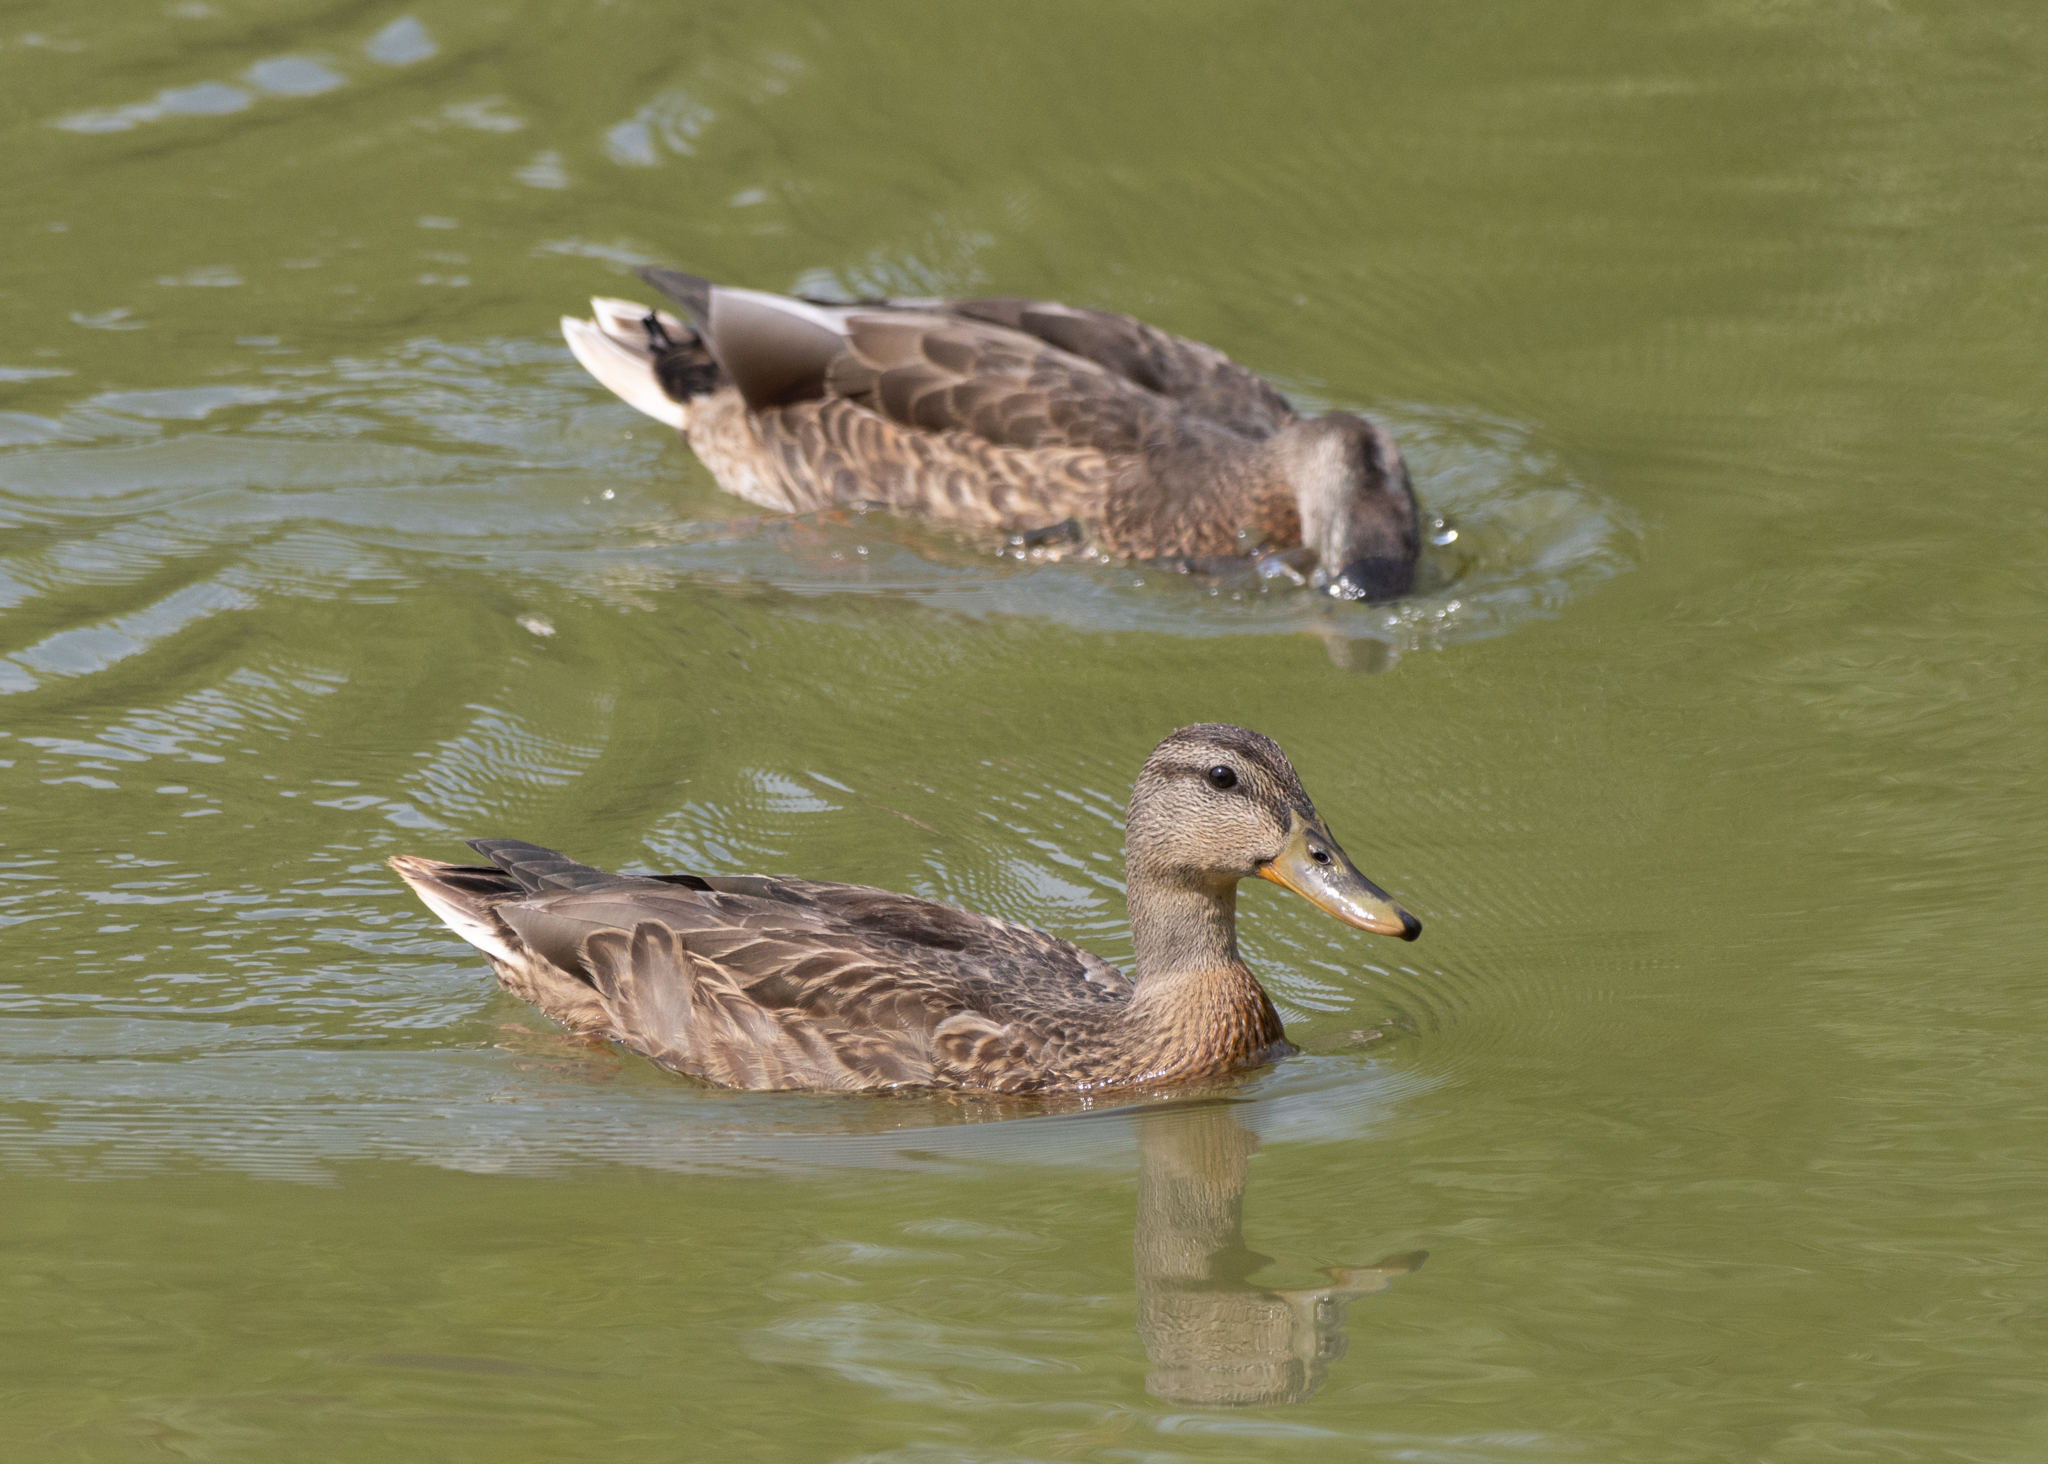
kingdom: Animalia
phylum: Chordata
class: Aves
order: Anseriformes
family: Anatidae
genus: Anas
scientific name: Anas platyrhynchos
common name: Mallard
